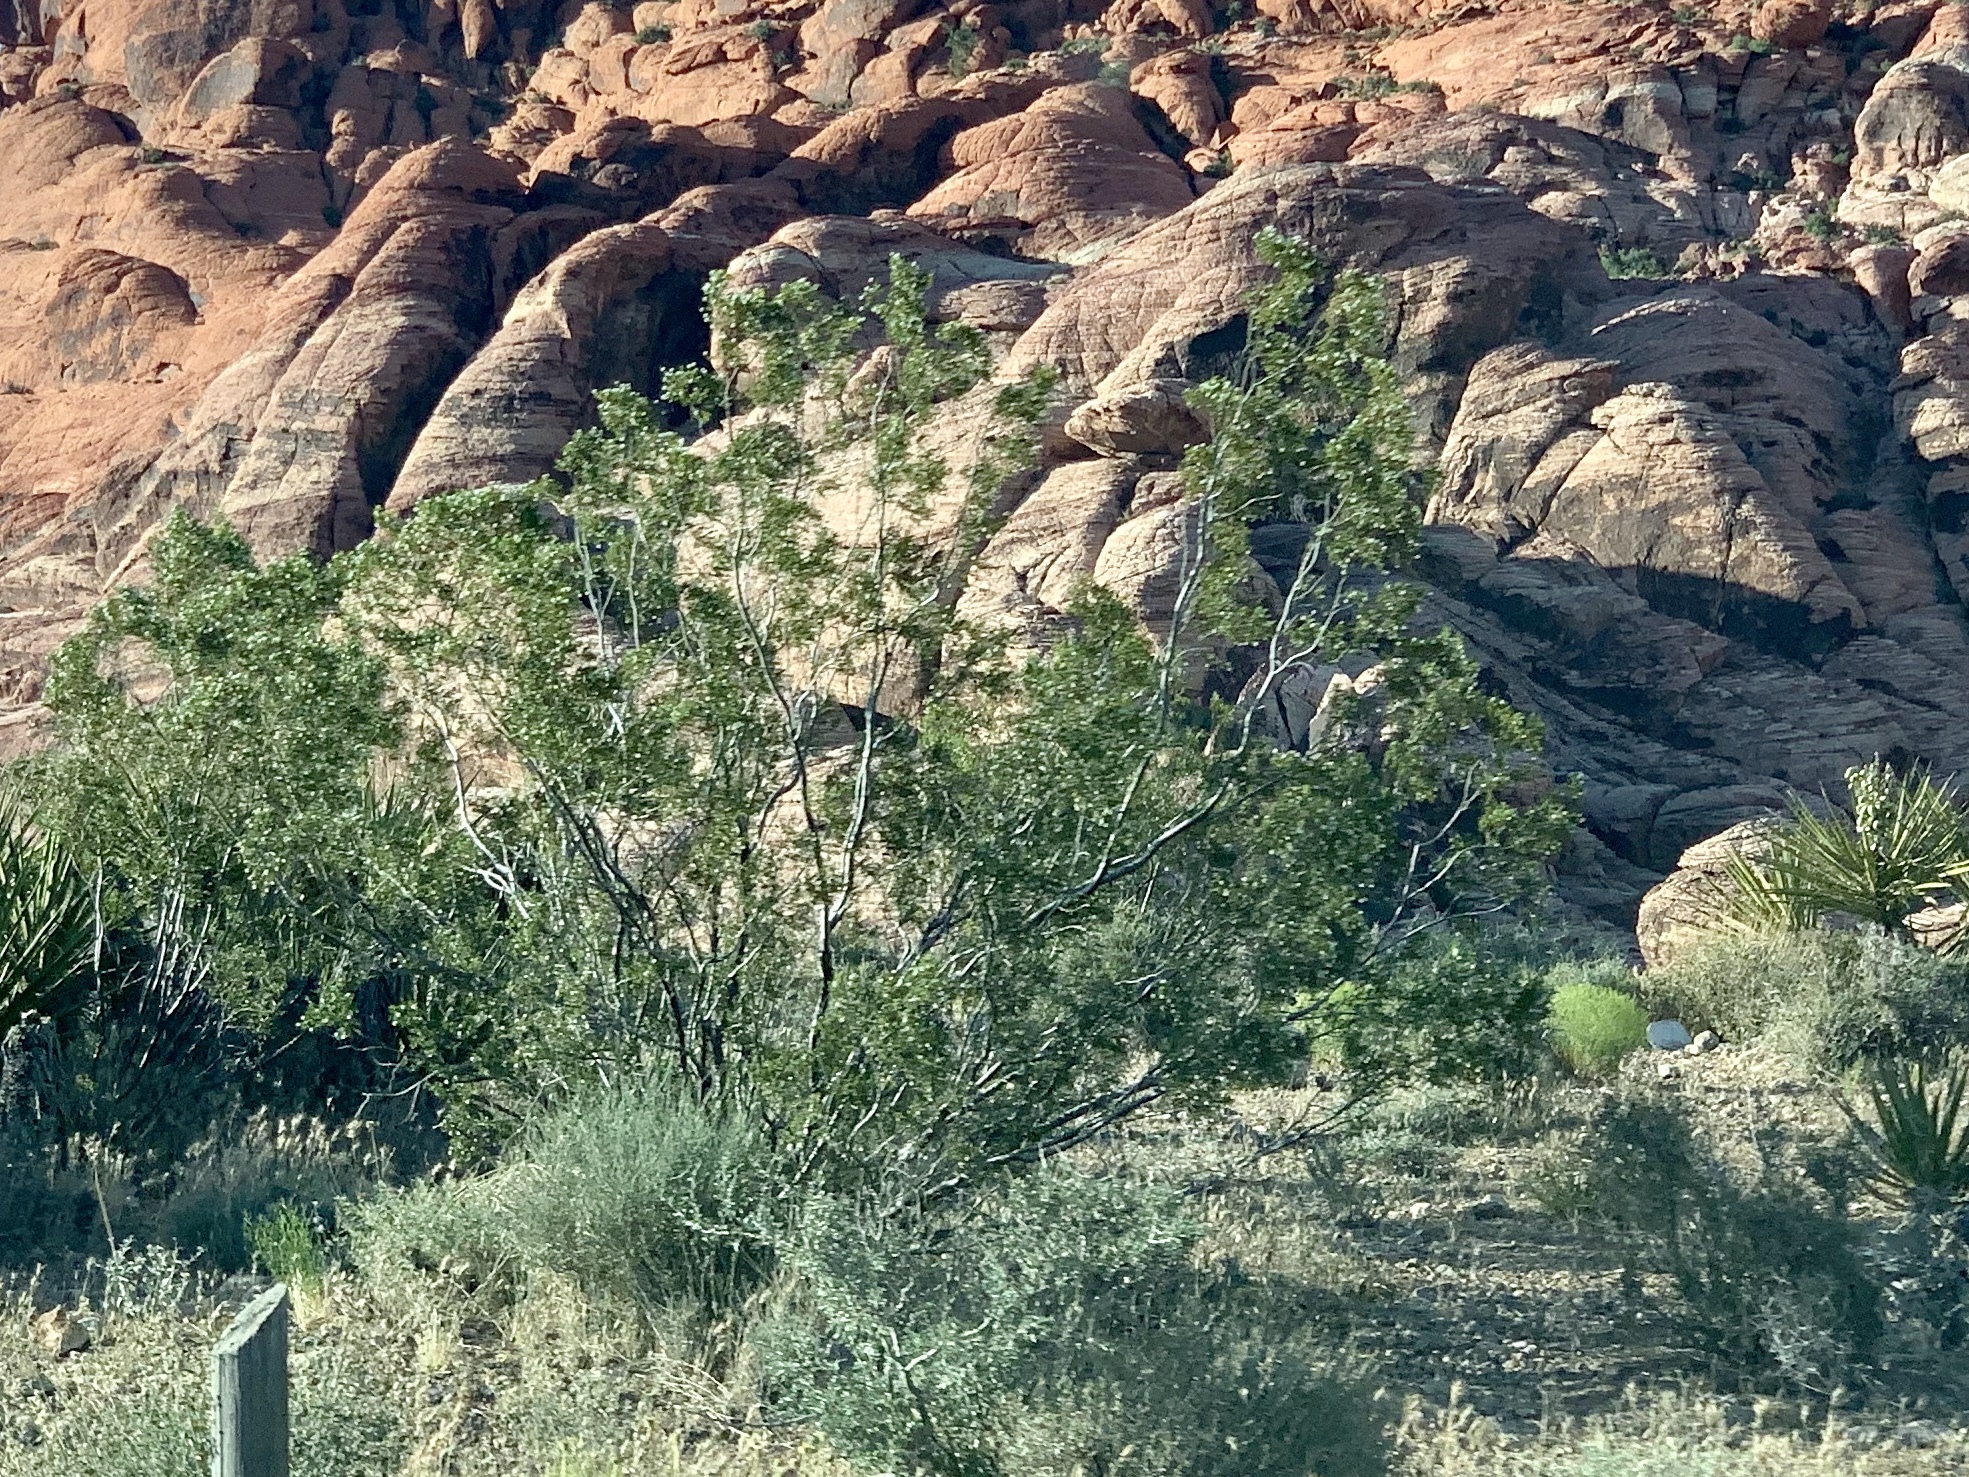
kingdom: Plantae
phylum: Tracheophyta
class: Magnoliopsida
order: Zygophyllales
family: Zygophyllaceae
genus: Larrea
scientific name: Larrea tridentata
